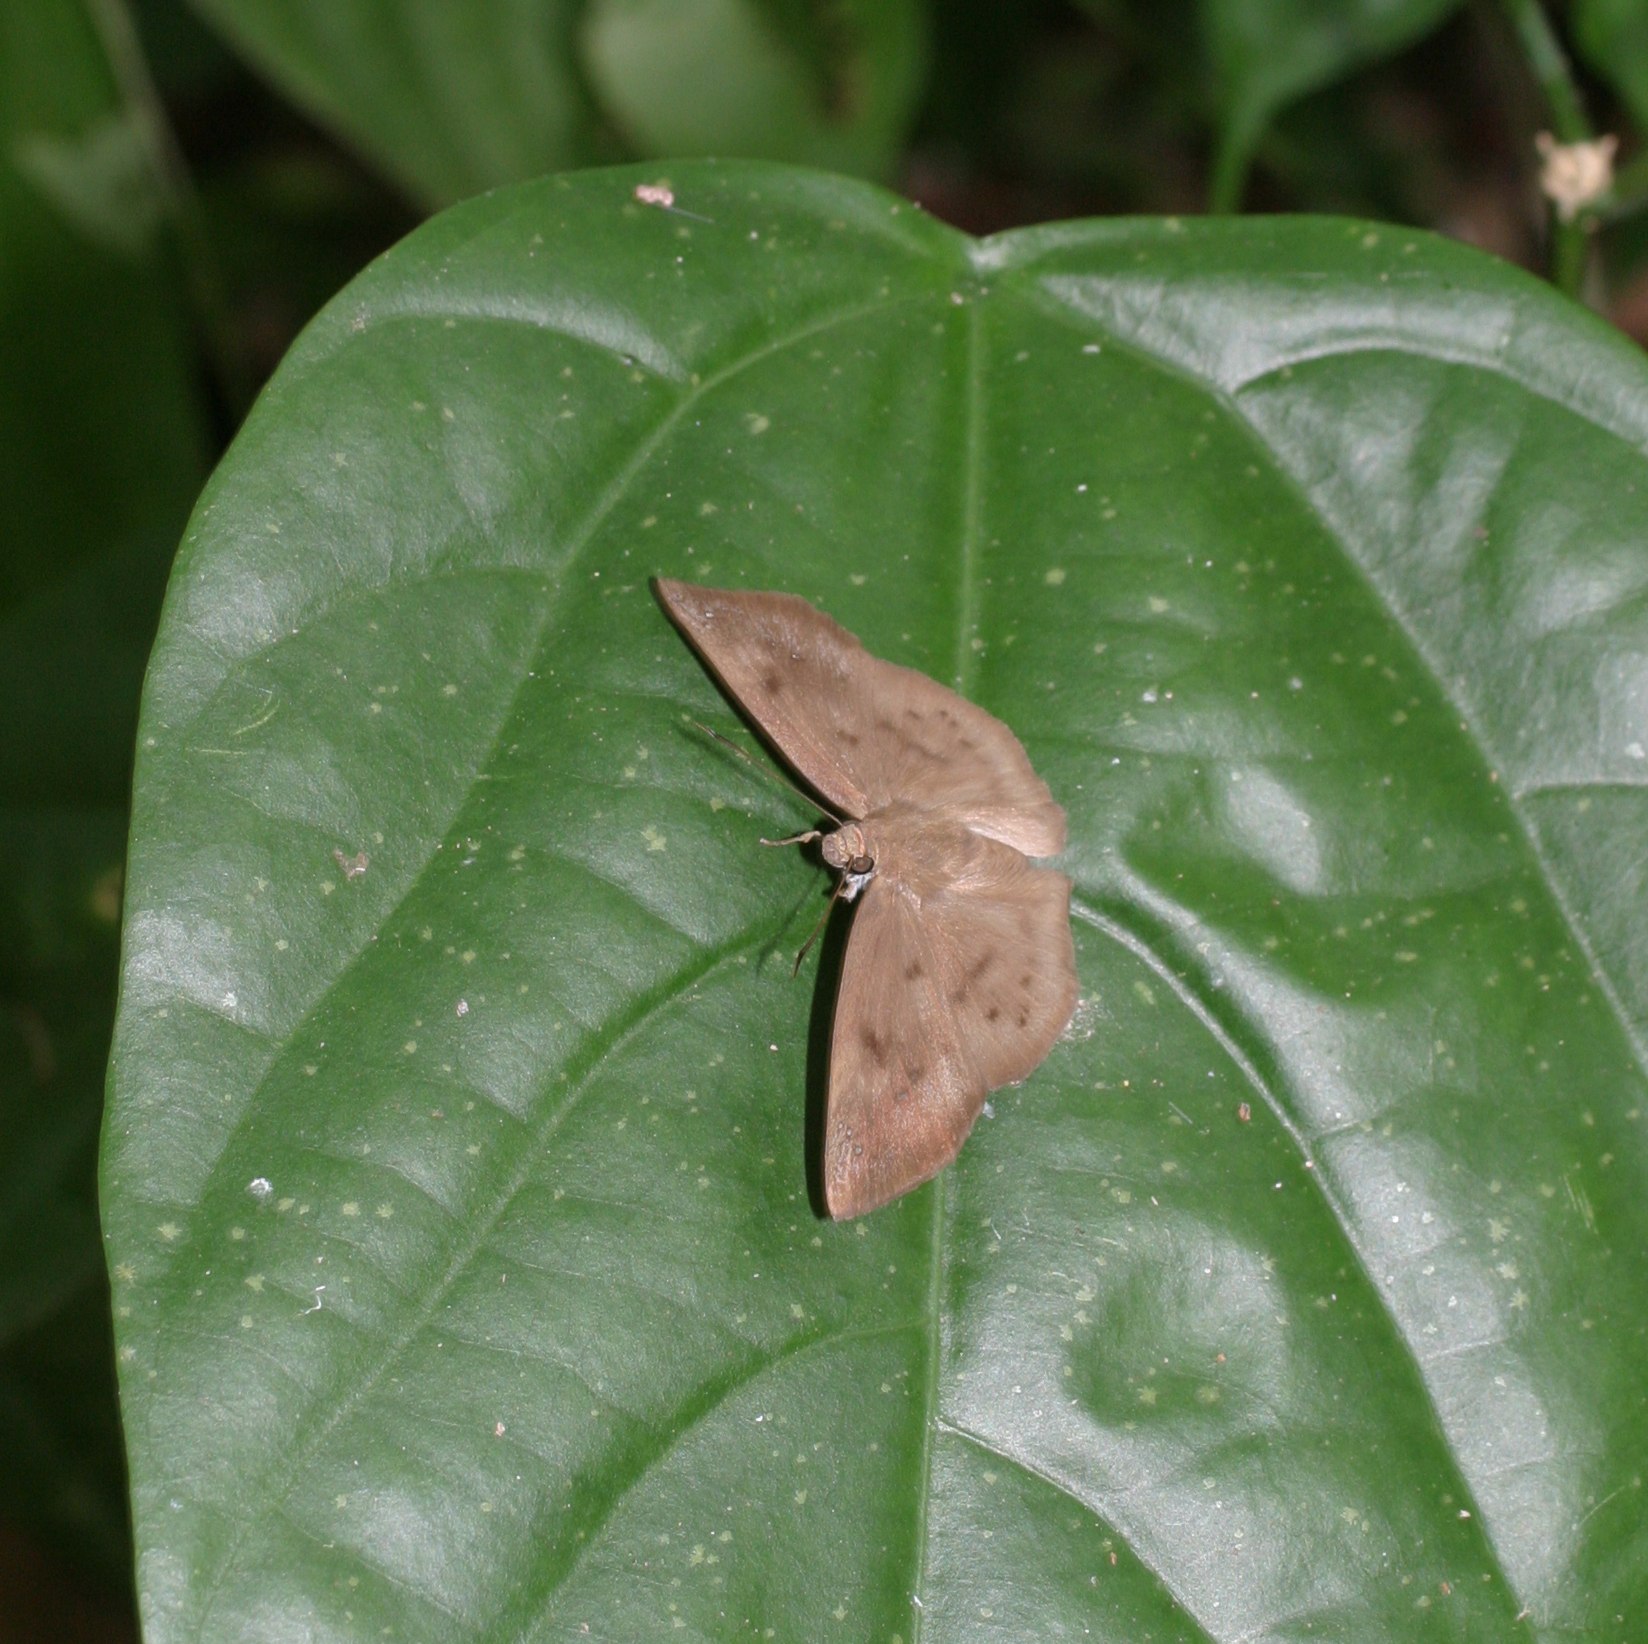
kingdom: Animalia
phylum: Arthropoda
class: Insecta
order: Lepidoptera
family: Hesperiidae
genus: Tagiades
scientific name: Tagiades japetus
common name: Pied flat
